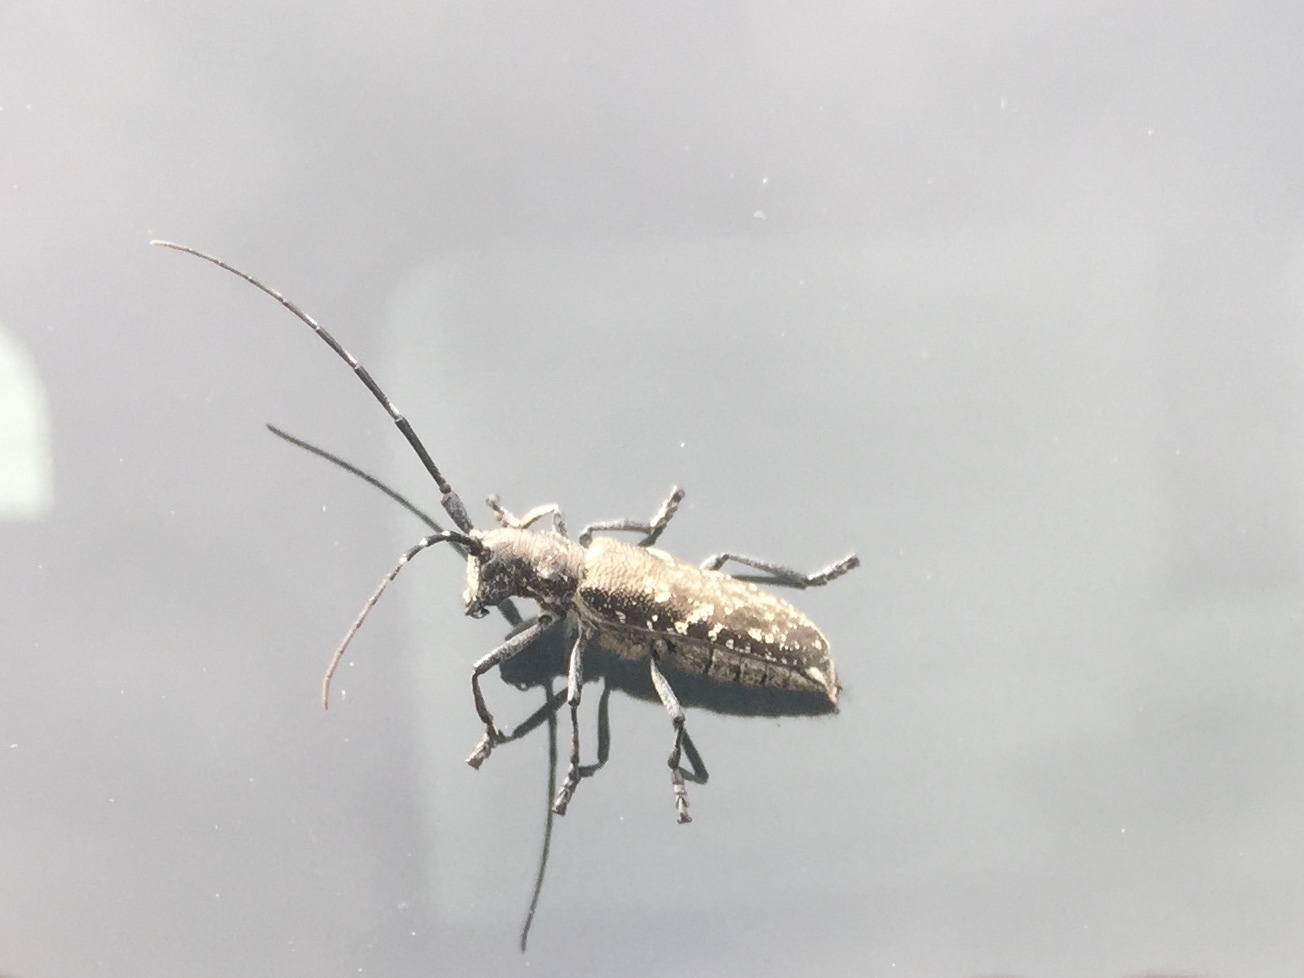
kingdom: Animalia
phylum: Arthropoda
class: Insecta
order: Coleoptera
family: Cerambycidae
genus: Monochamus
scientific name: Monochamus scutellatus
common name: White-spotted sawyer beetle
